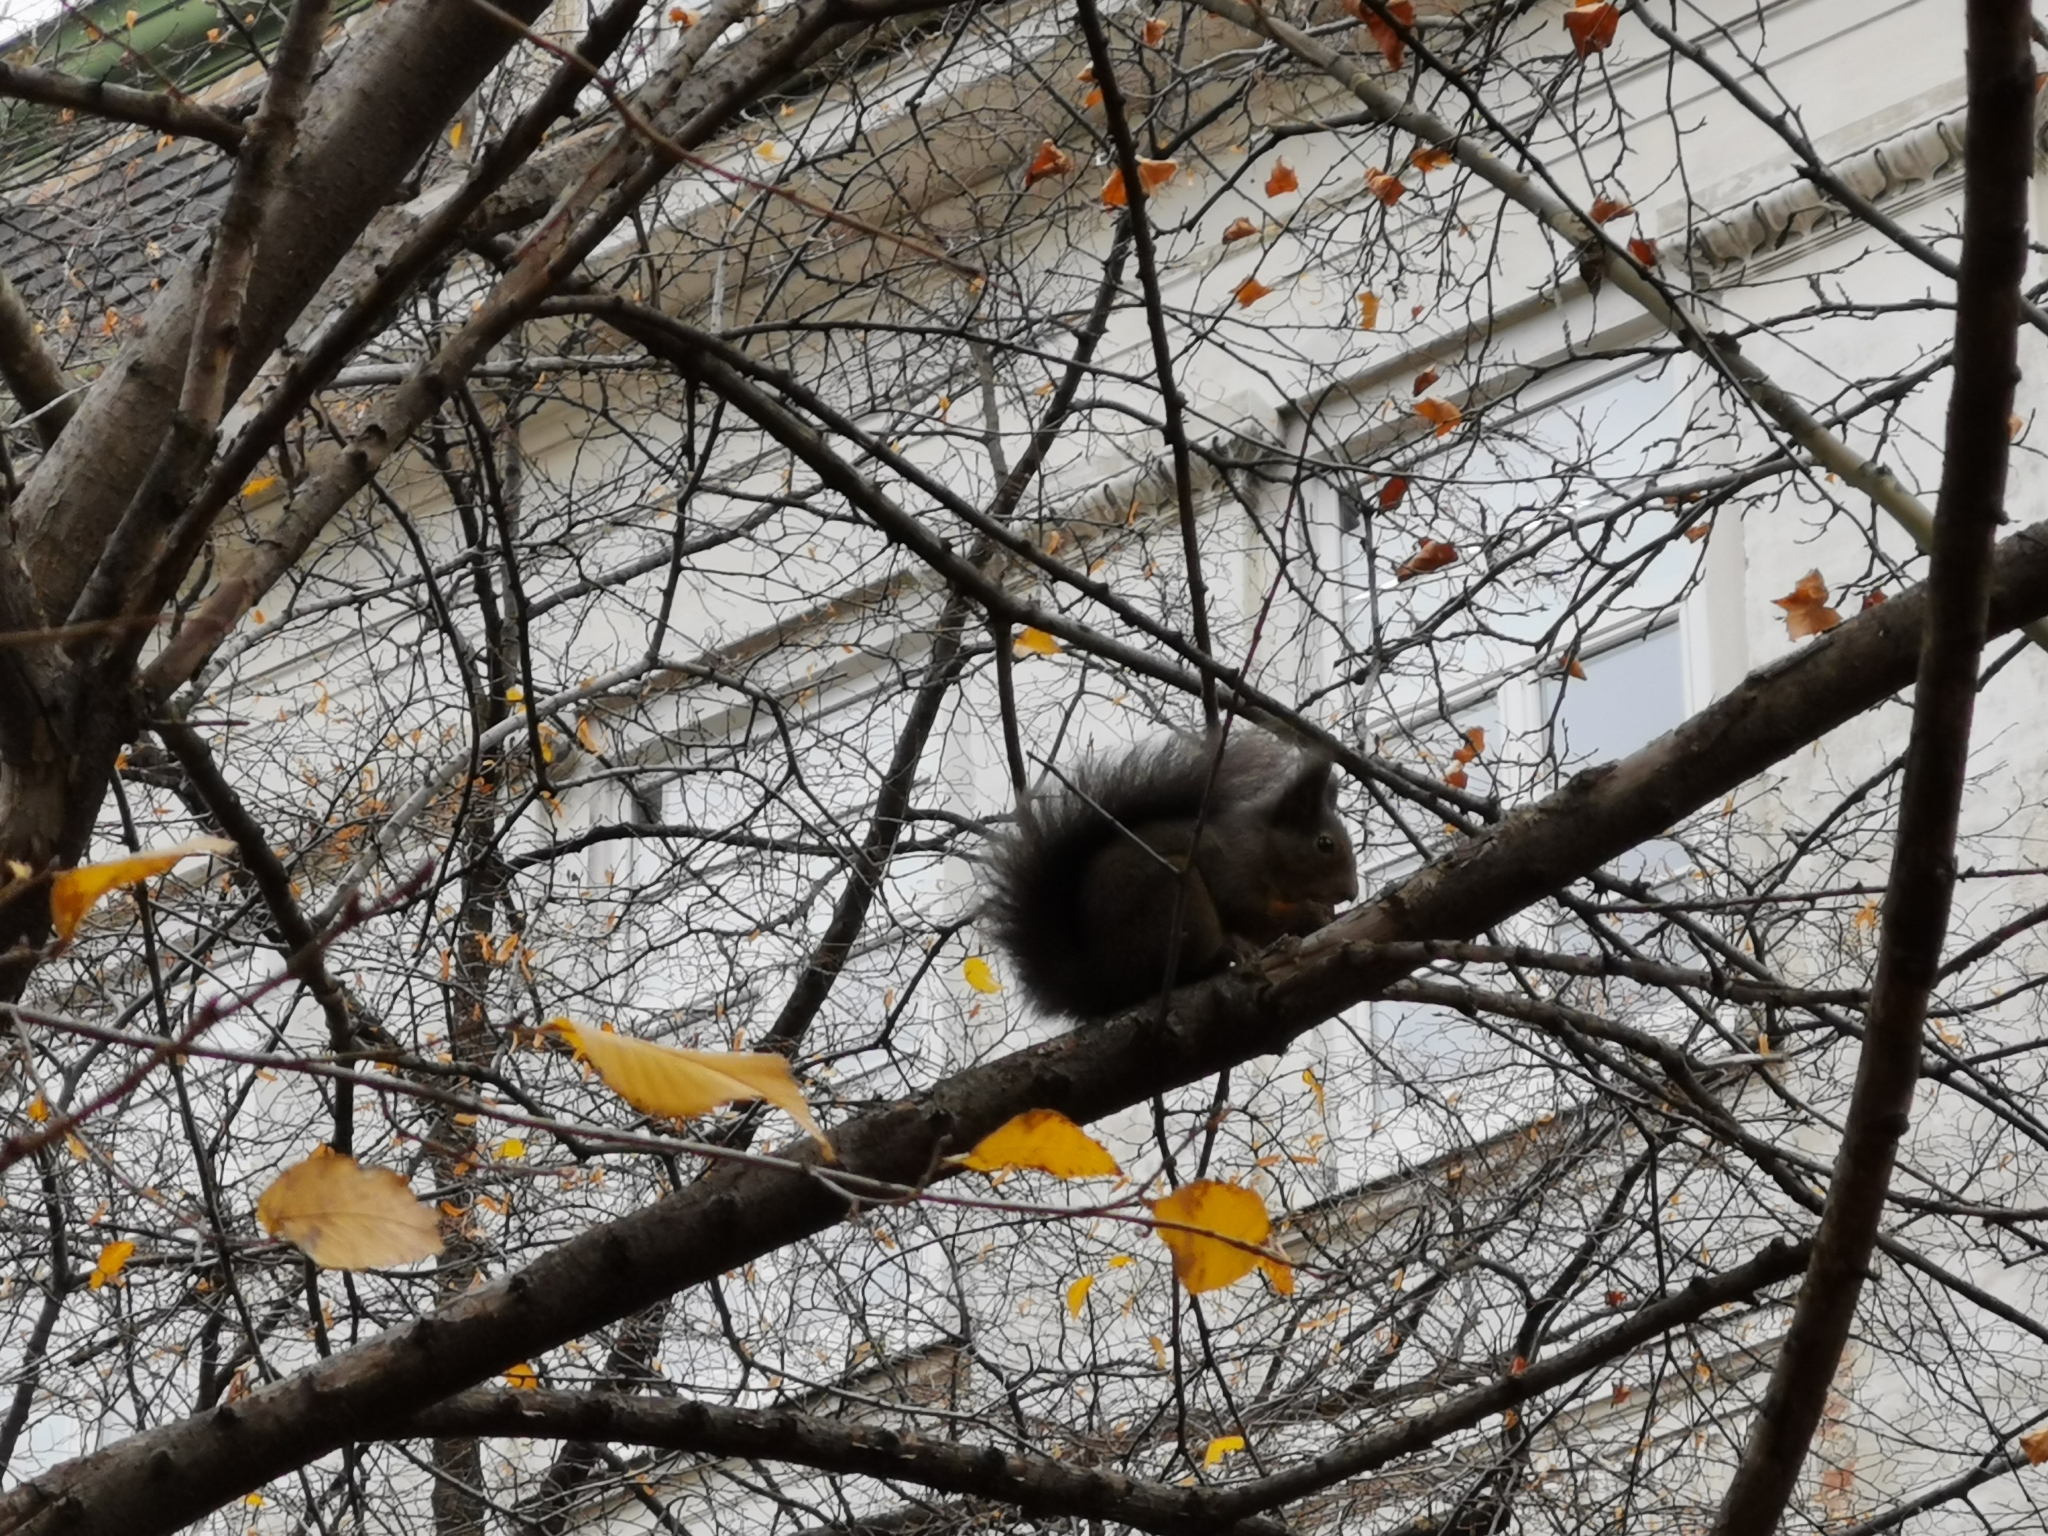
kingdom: Animalia
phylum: Chordata
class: Mammalia
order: Rodentia
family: Sciuridae
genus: Sciurus
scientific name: Sciurus vulgaris
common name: Eurasian red squirrel
